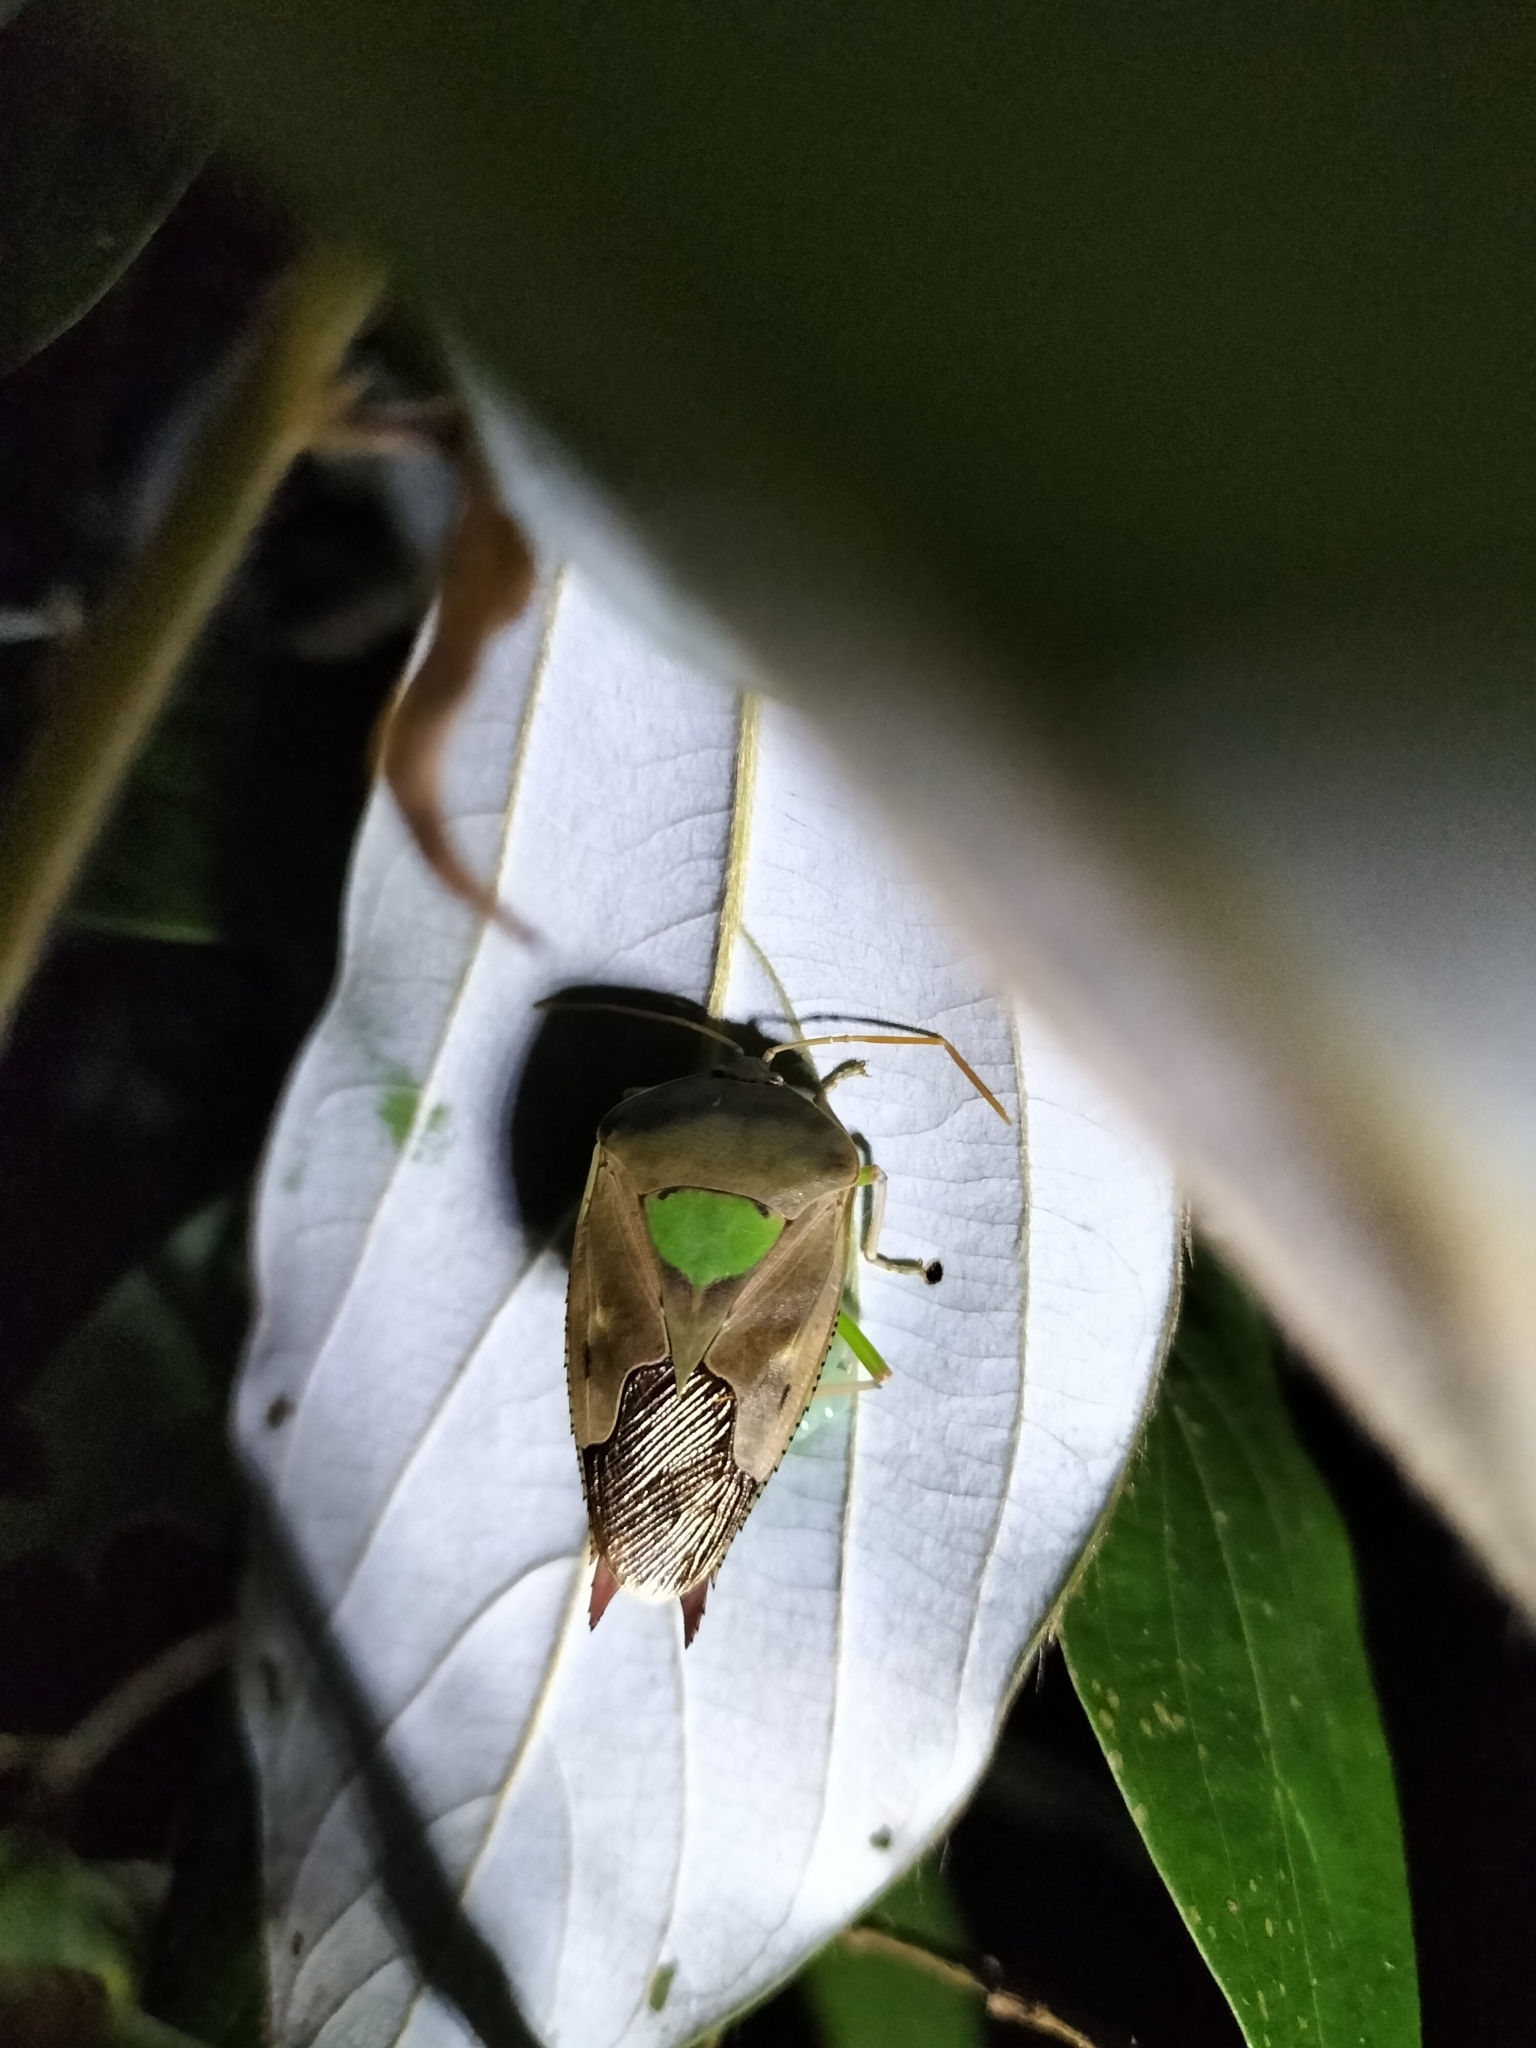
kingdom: Animalia
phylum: Arthropoda
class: Insecta
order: Hemiptera
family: Tessaratomidae
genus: Lyramorpha
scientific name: Lyramorpha parens
